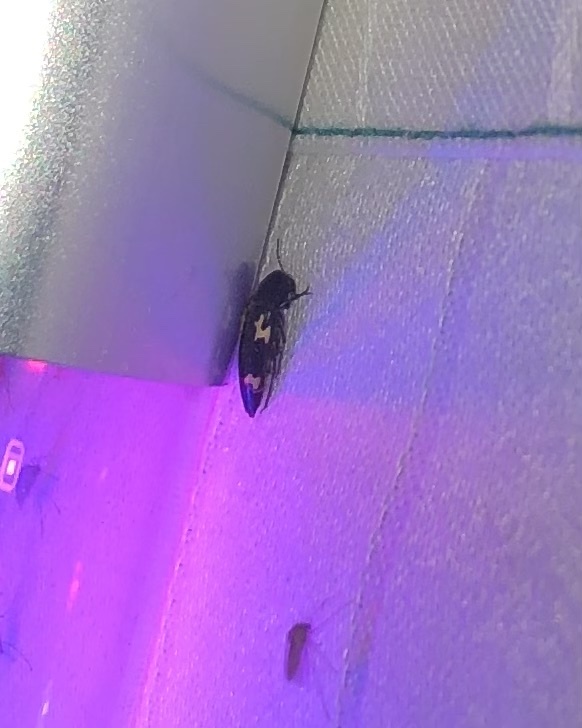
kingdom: Animalia
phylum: Arthropoda
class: Insecta
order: Coleoptera
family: Melandryidae
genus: Dircaea
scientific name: Dircaea liturata
